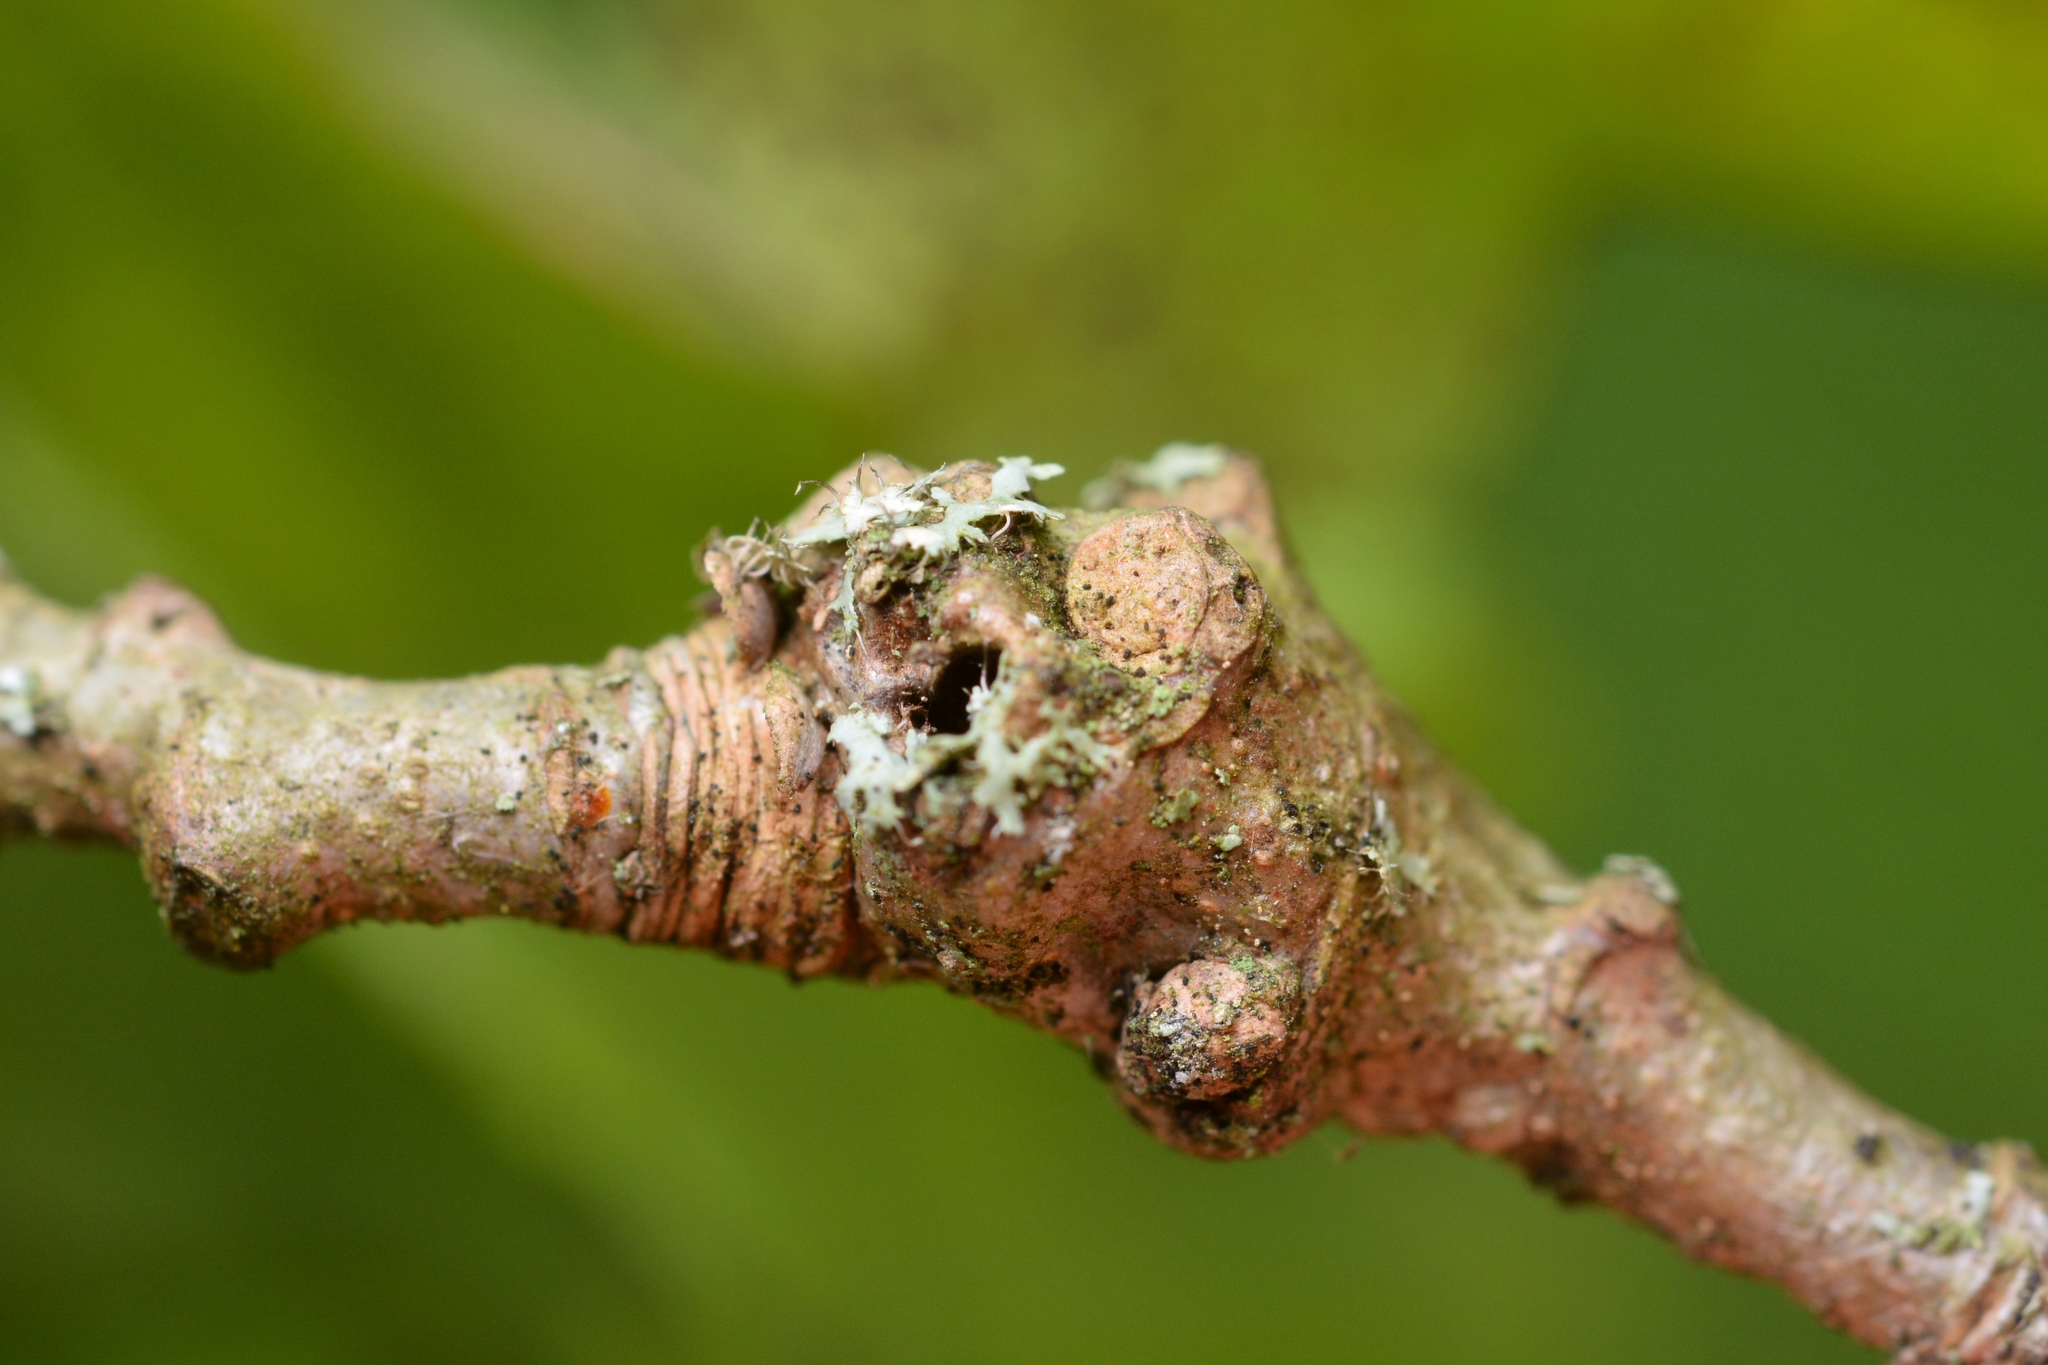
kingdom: Animalia
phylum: Arthropoda
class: Insecta
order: Hymenoptera
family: Cynipidae
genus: Andricus
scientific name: Andricus inflator
